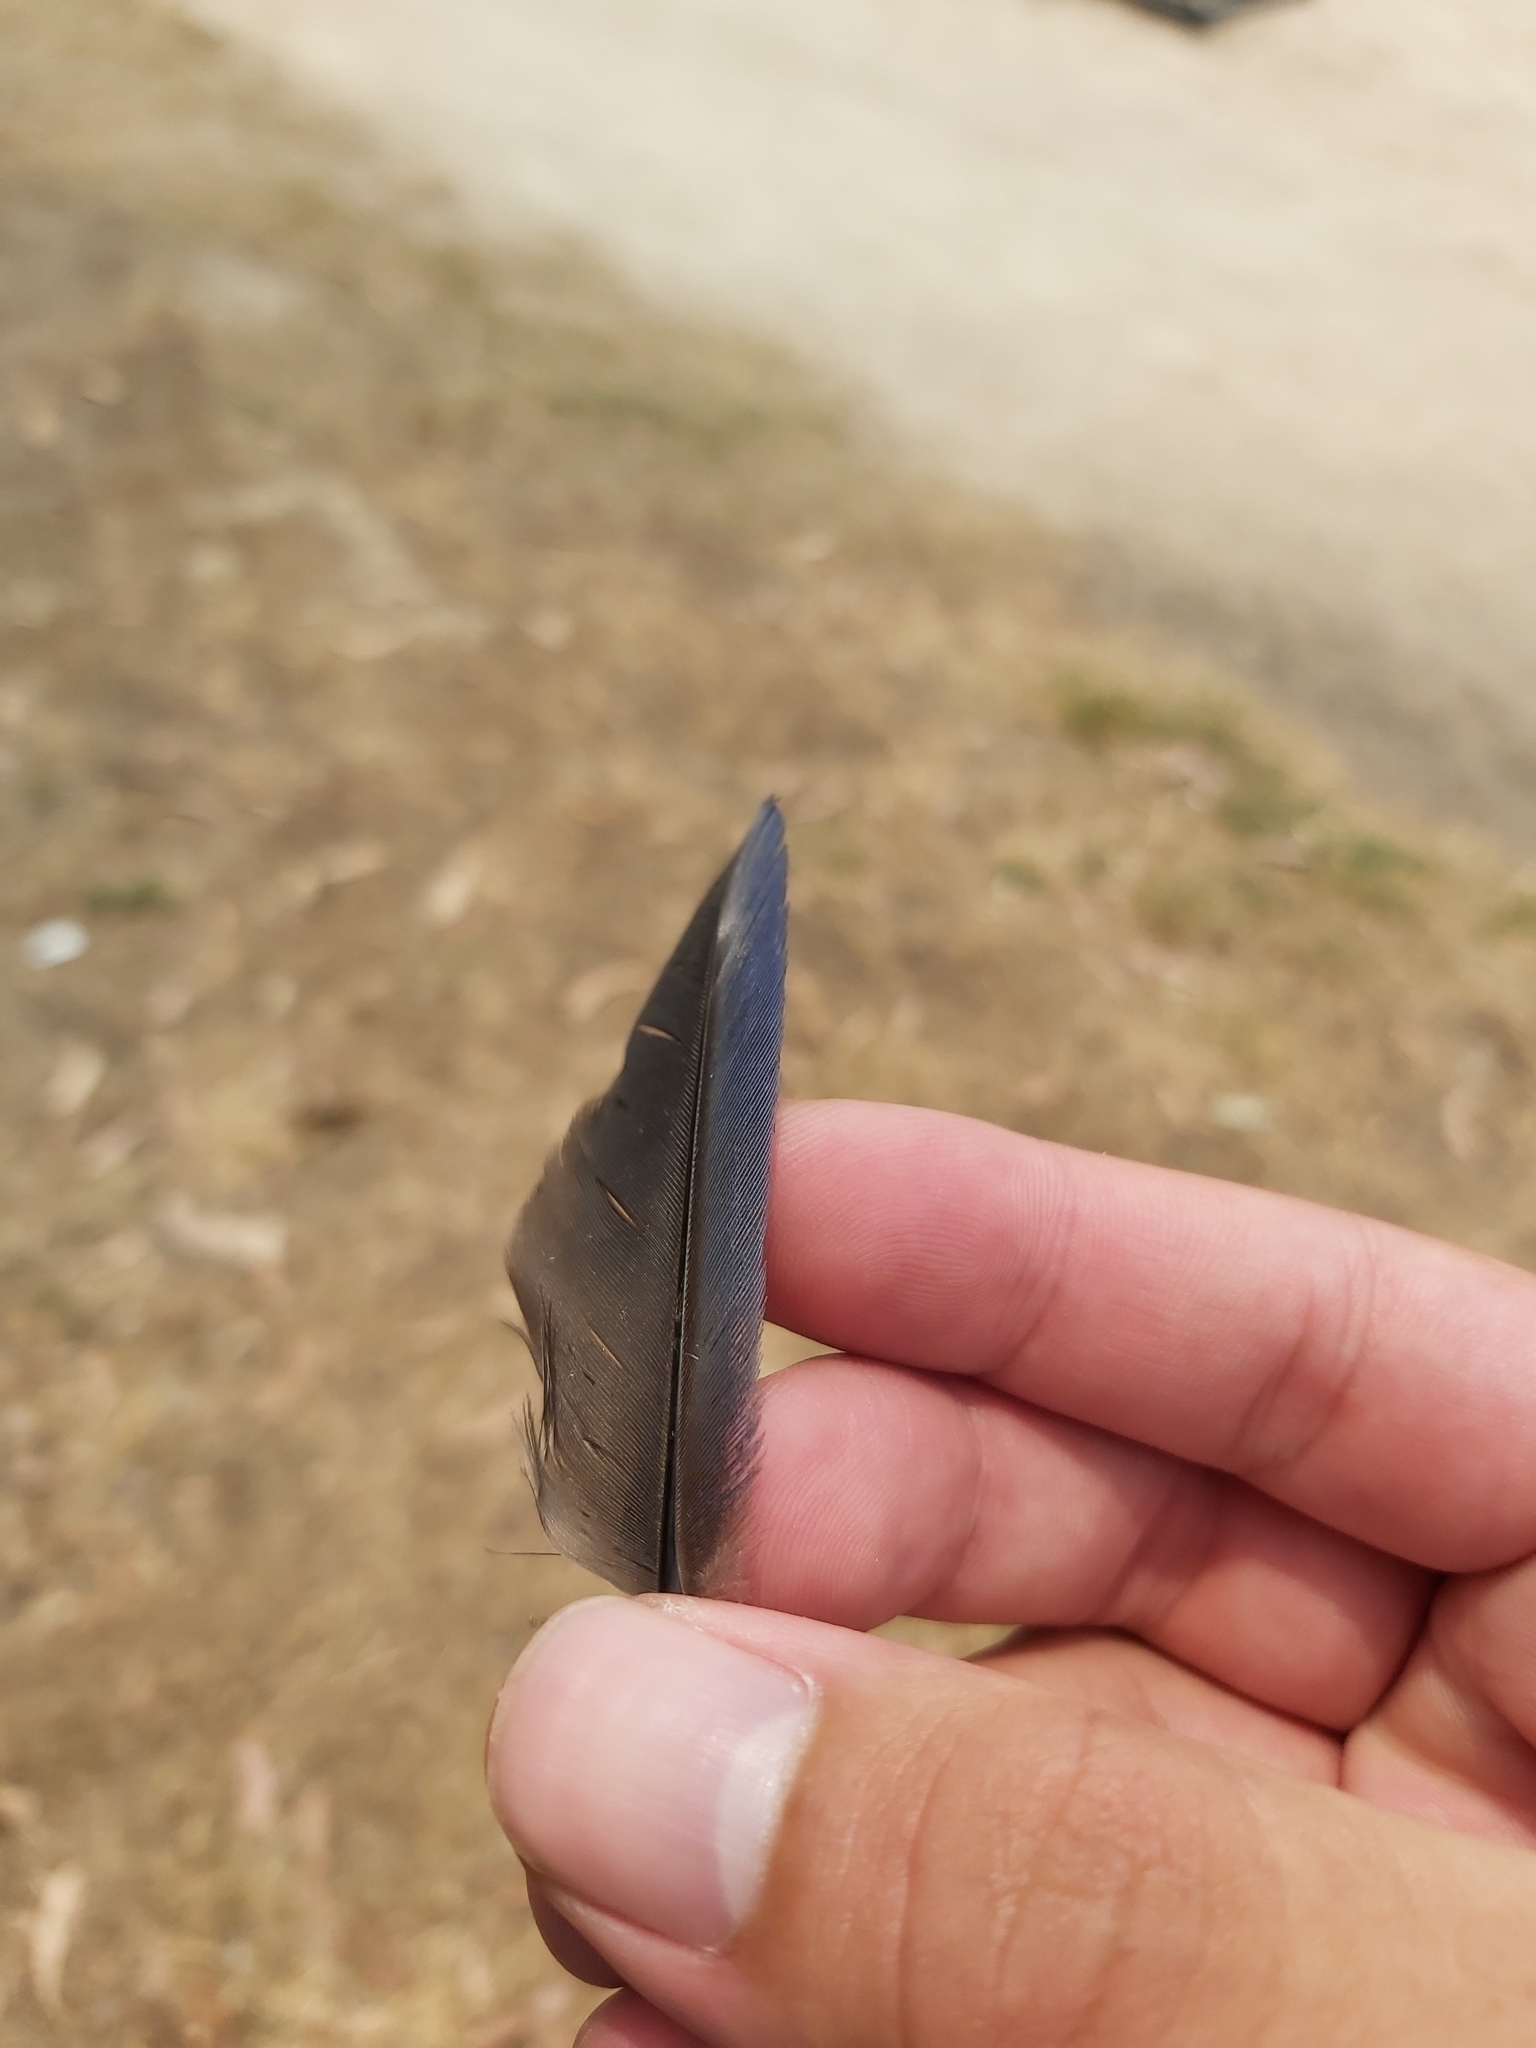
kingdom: Animalia
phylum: Chordata
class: Aves
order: Gruiformes
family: Rallidae
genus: Porphyrio
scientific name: Porphyrio melanotus
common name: Australasian swamphen
